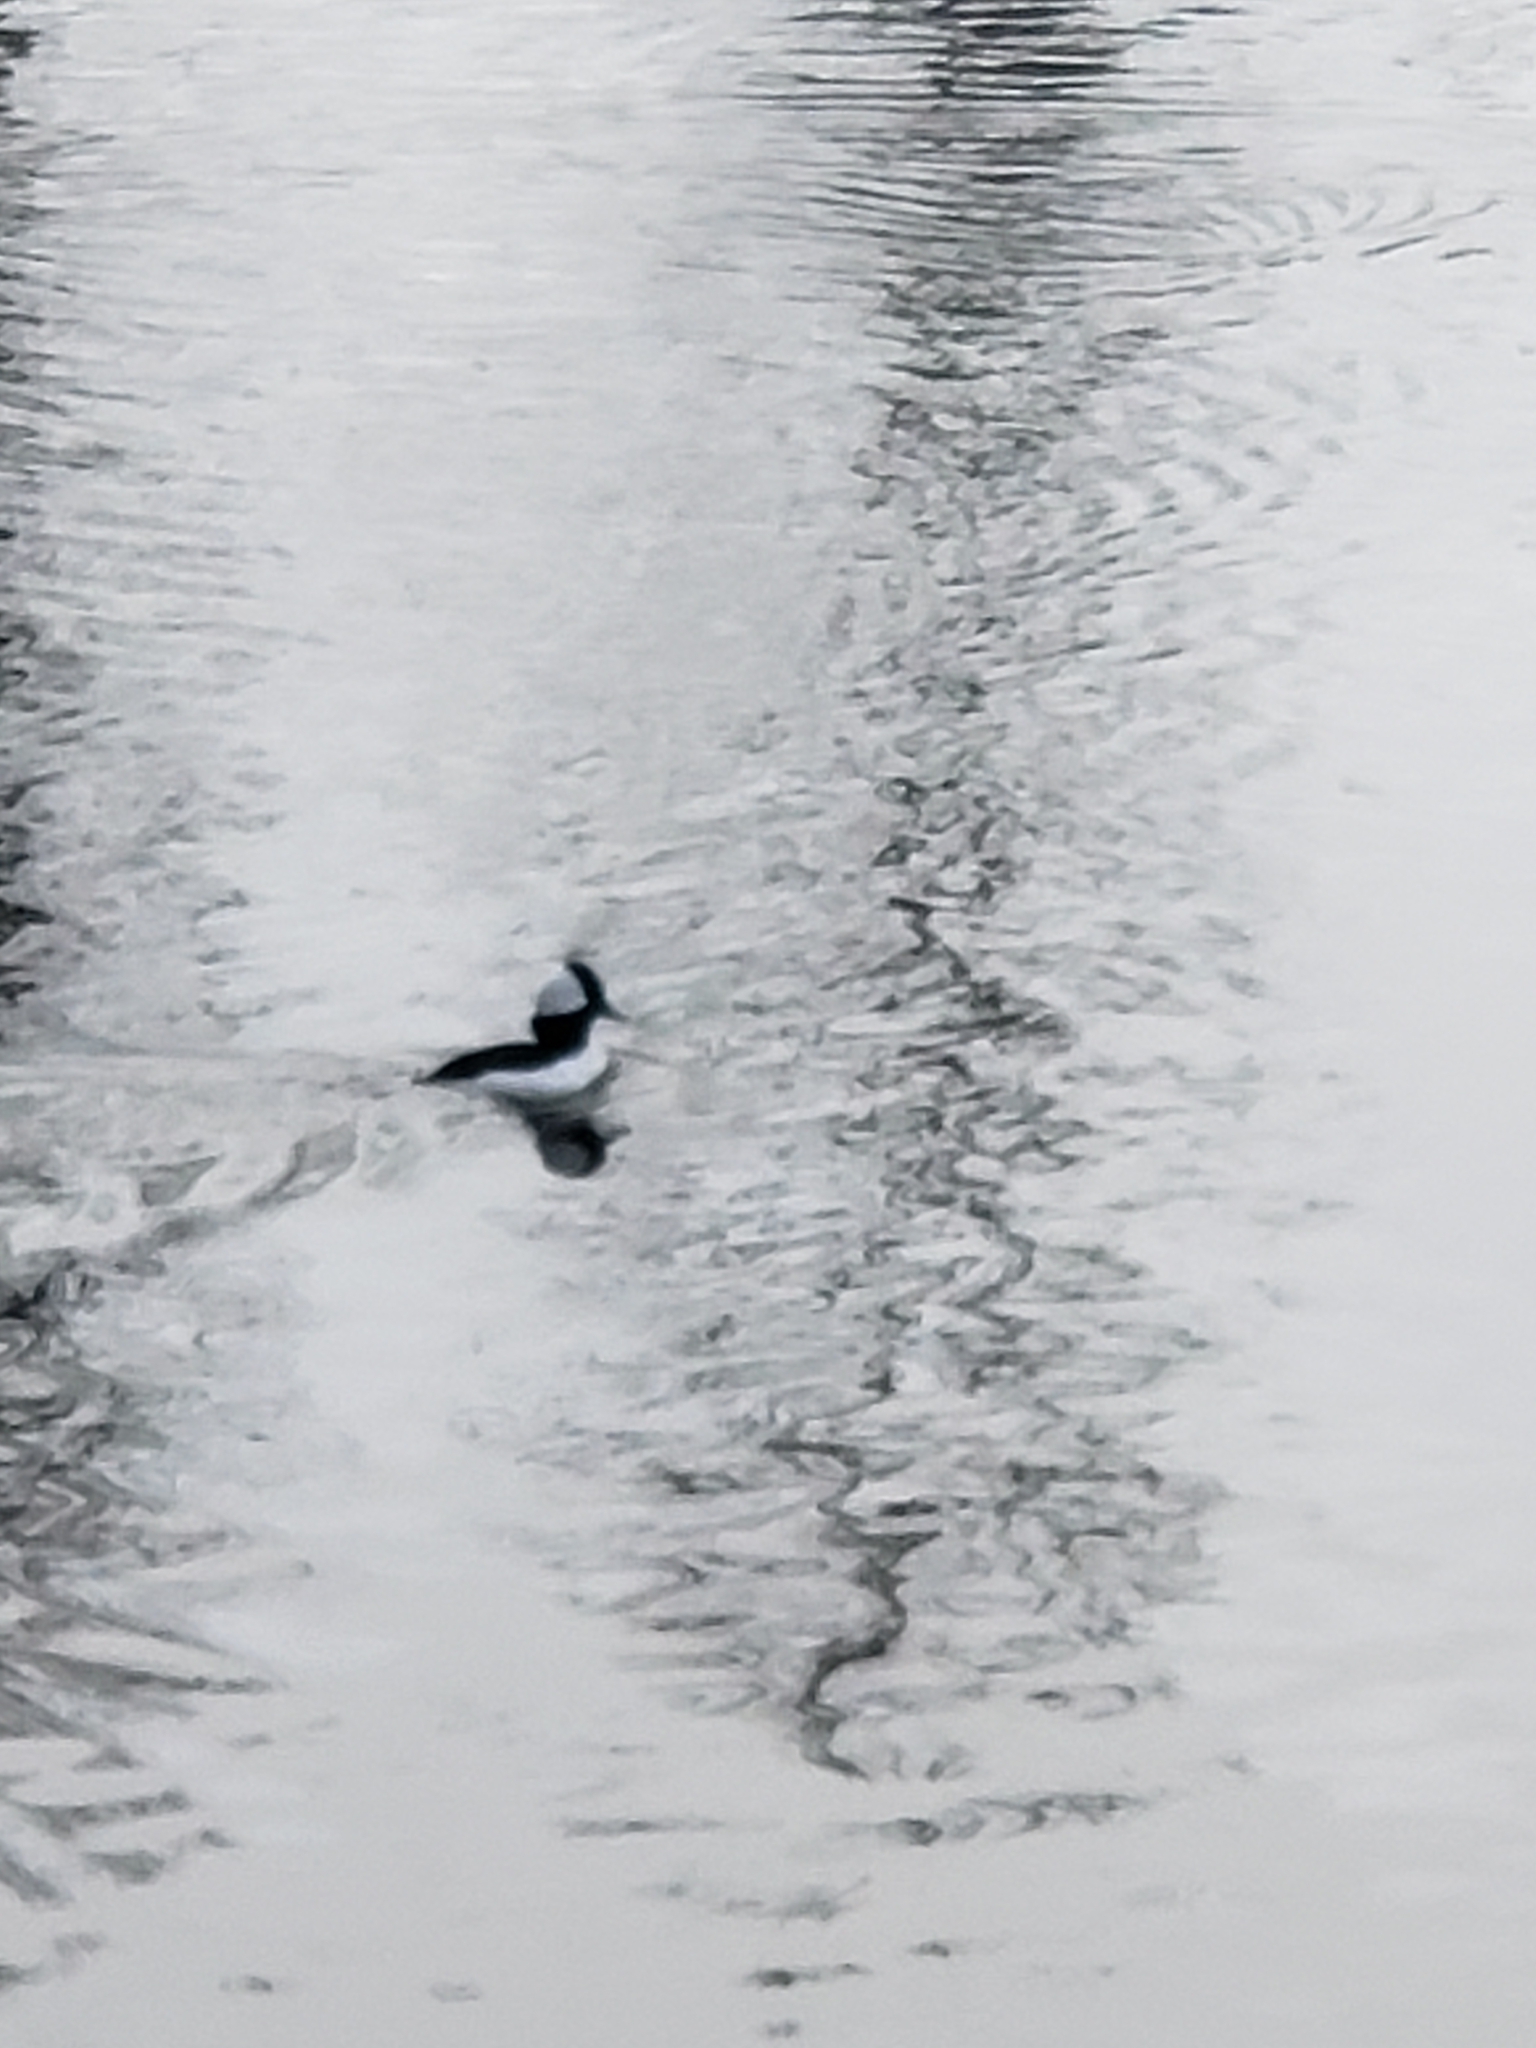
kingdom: Animalia
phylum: Chordata
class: Aves
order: Anseriformes
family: Anatidae
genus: Bucephala
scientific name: Bucephala albeola
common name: Bufflehead
